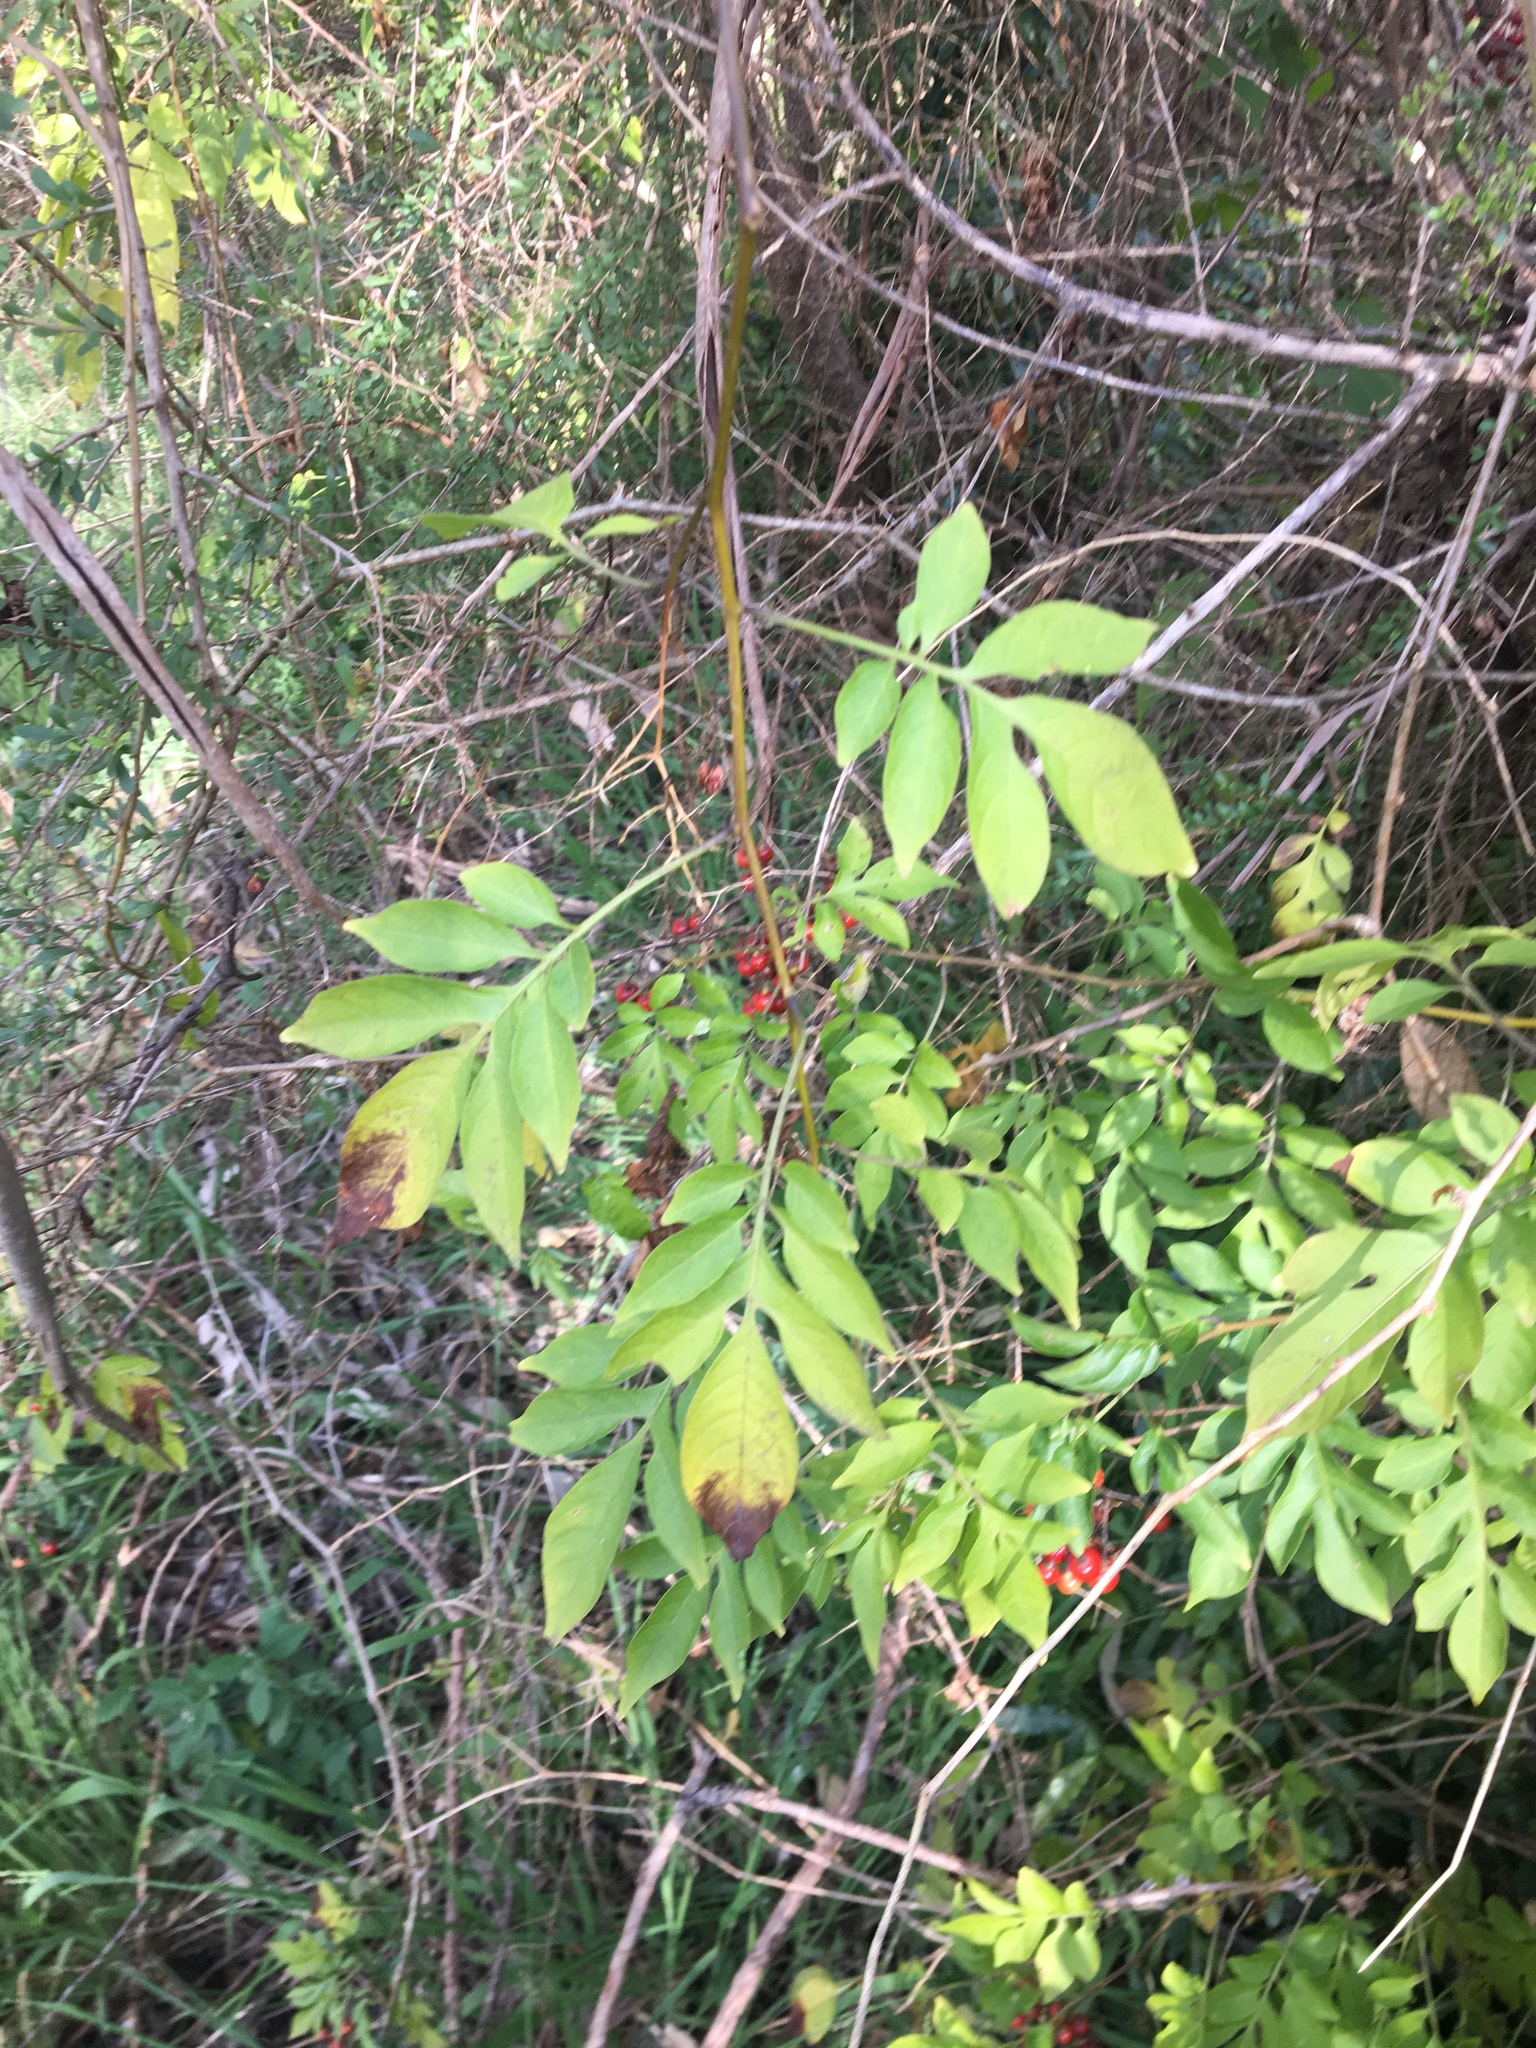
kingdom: Plantae
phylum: Tracheophyta
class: Magnoliopsida
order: Solanales
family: Solanaceae
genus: Solanum
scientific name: Solanum seaforthianum
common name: Brazilian nightshade
